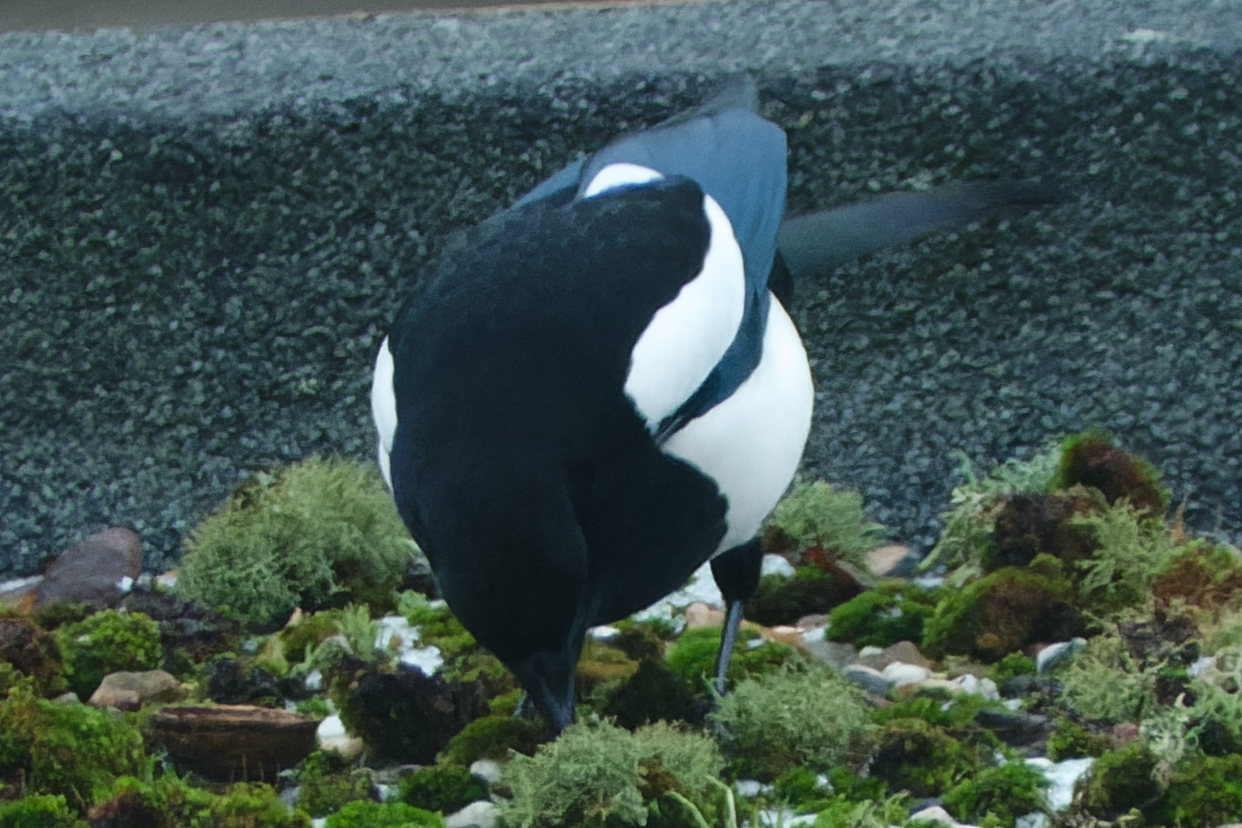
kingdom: Animalia
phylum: Chordata
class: Aves
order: Passeriformes
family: Corvidae
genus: Pica
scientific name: Pica pica
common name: Eurasian magpie
